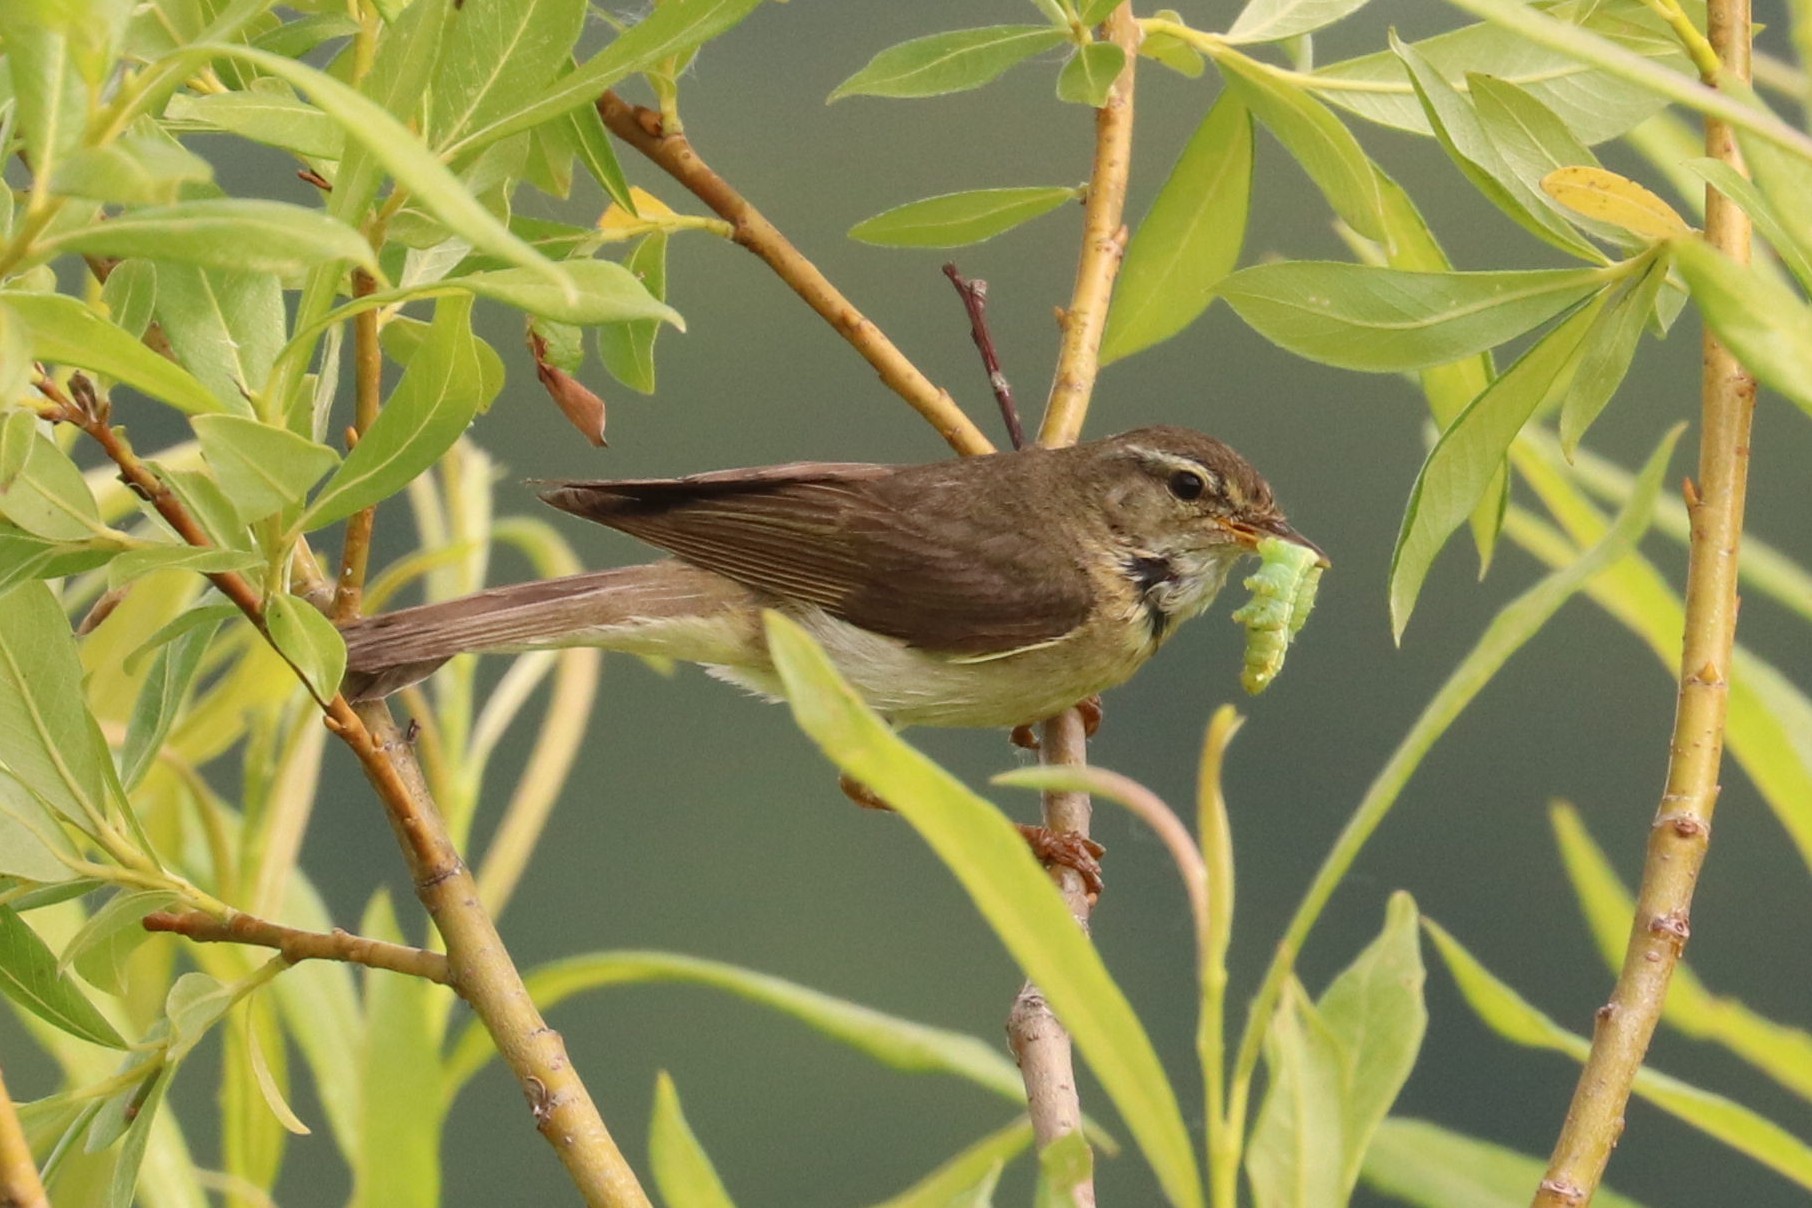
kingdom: Animalia
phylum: Chordata
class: Aves
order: Passeriformes
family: Phylloscopidae
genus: Phylloscopus
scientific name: Phylloscopus trochilus
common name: Willow warbler
